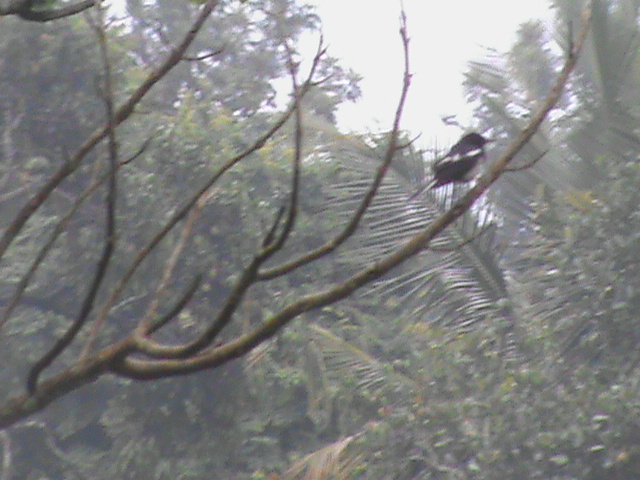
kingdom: Animalia
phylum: Chordata
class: Aves
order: Passeriformes
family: Muscicapidae
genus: Copsychus
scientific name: Copsychus saularis
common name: Oriental magpie-robin
